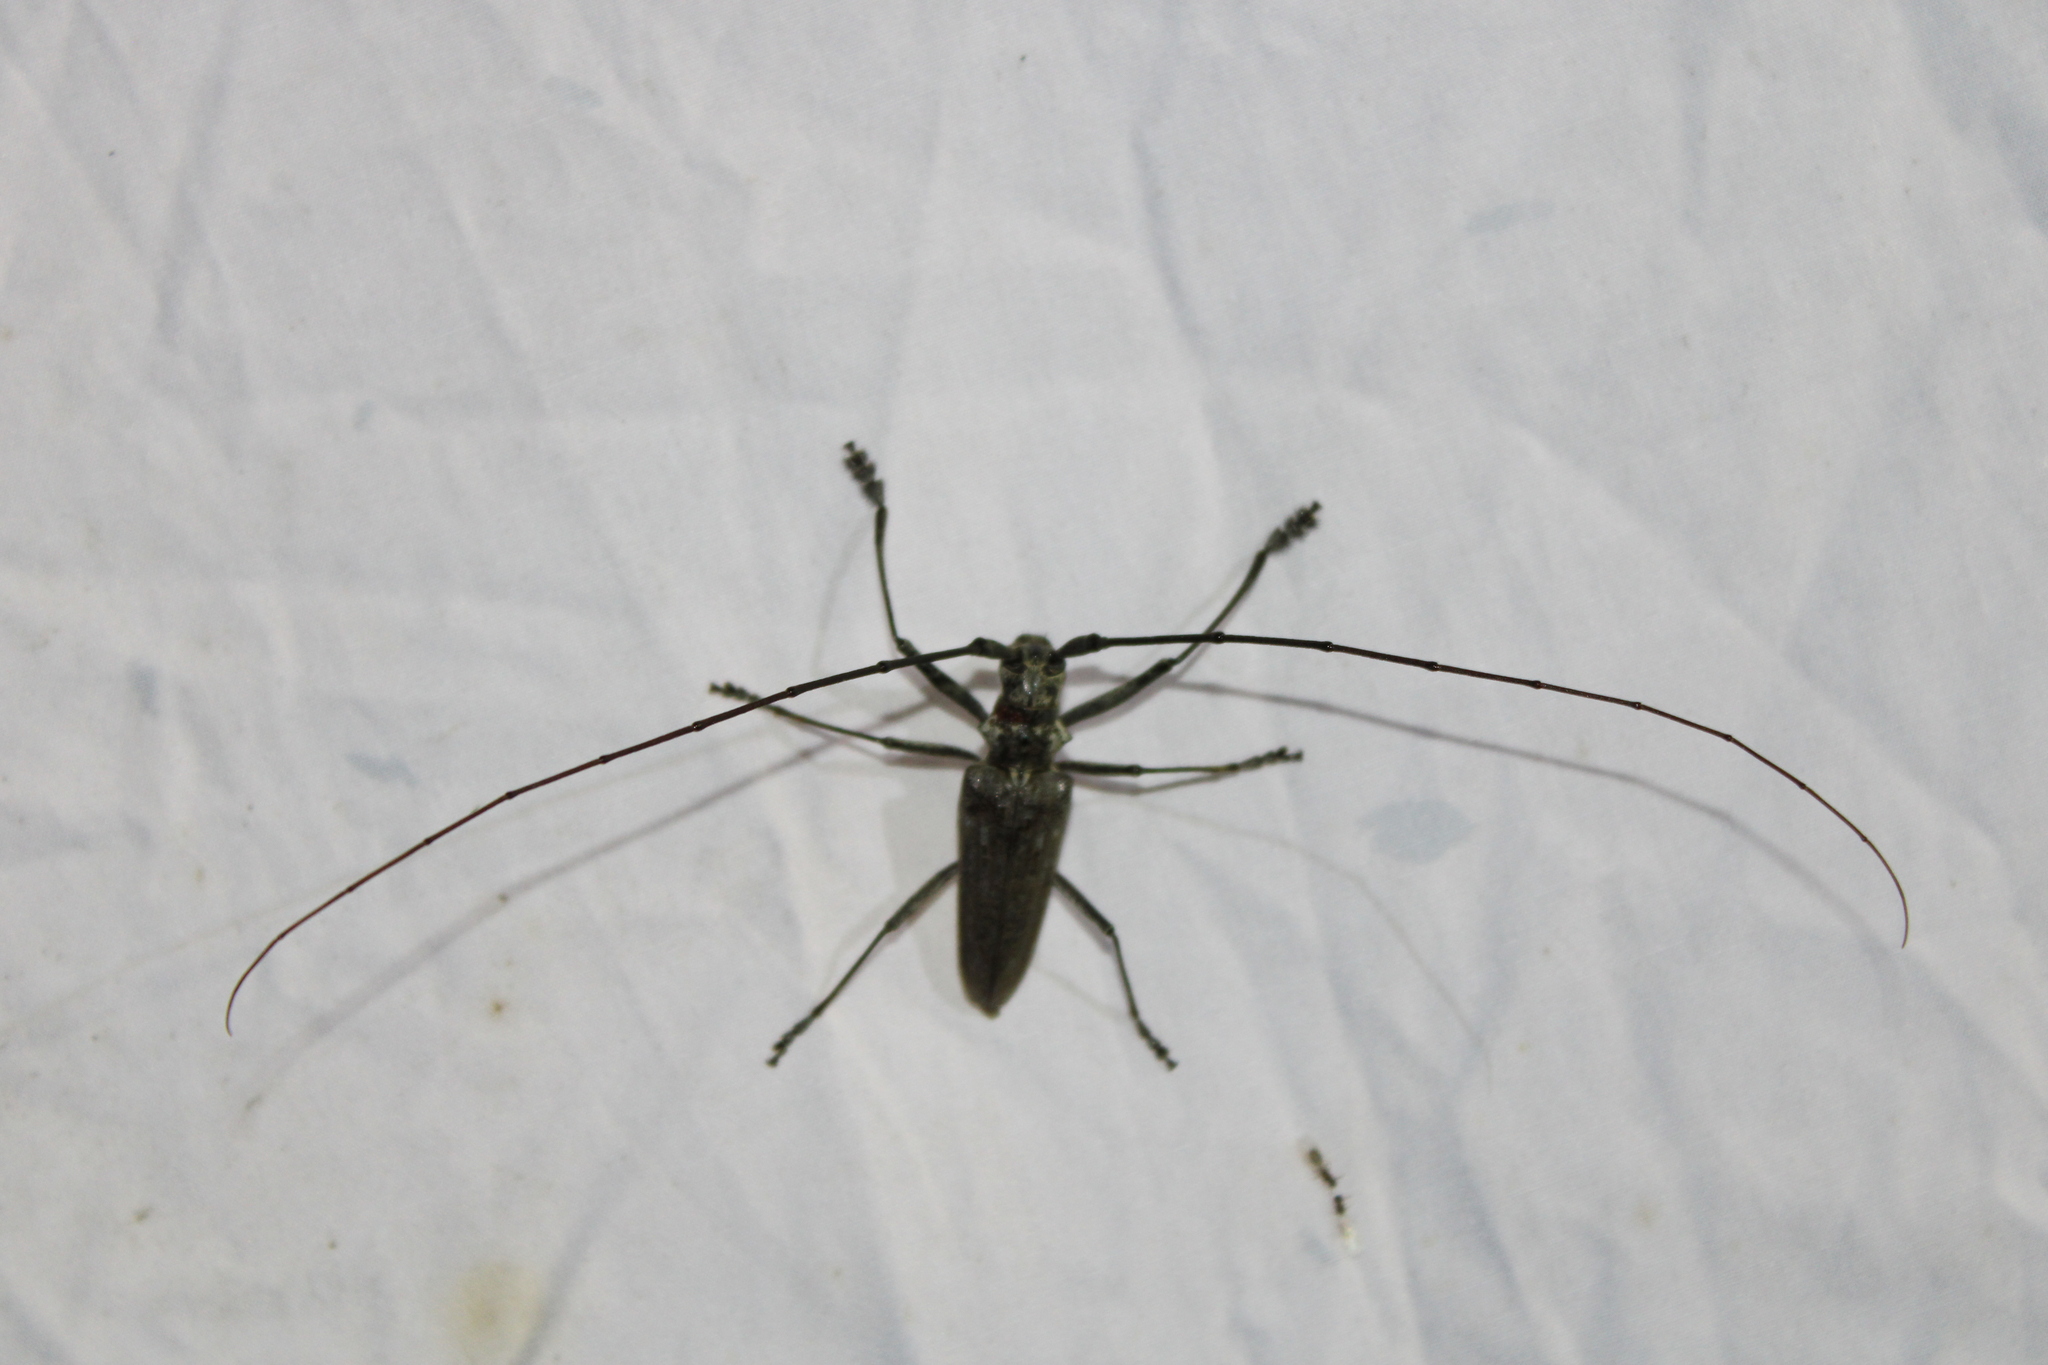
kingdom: Animalia
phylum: Arthropoda
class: Insecta
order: Coleoptera
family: Cerambycidae
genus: Monochamus
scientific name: Monochamus notatus
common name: Northeastern pine sawyer beetle
